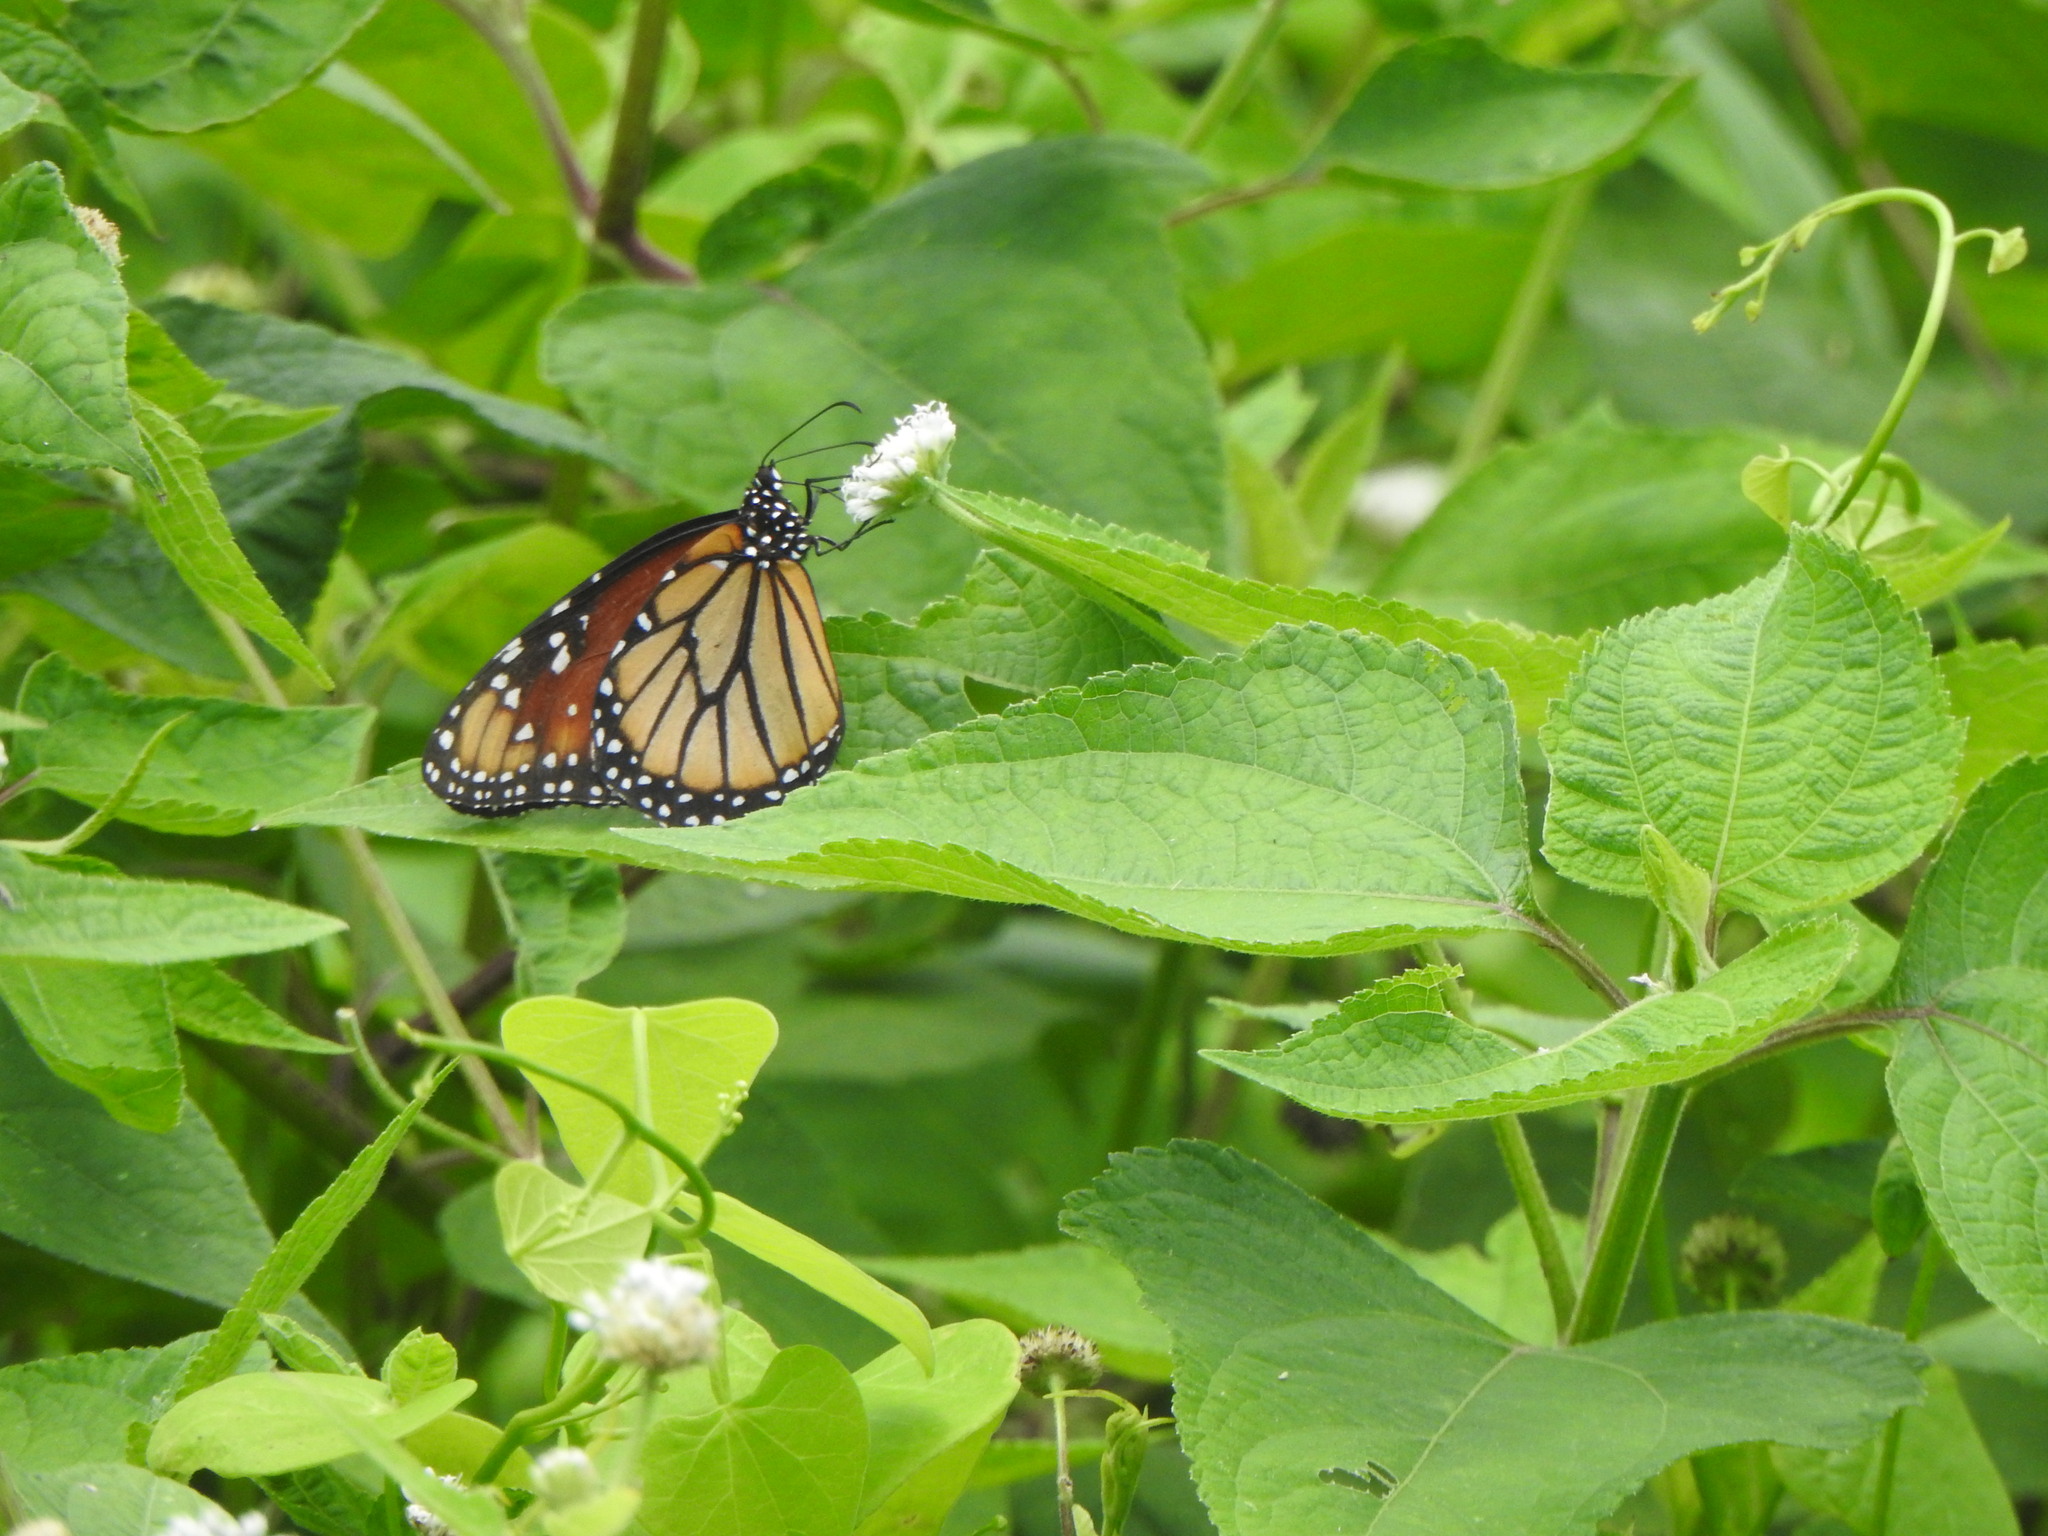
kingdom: Animalia
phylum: Arthropoda
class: Insecta
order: Lepidoptera
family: Nymphalidae
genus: Danaus
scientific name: Danaus gilippus
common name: Queen
